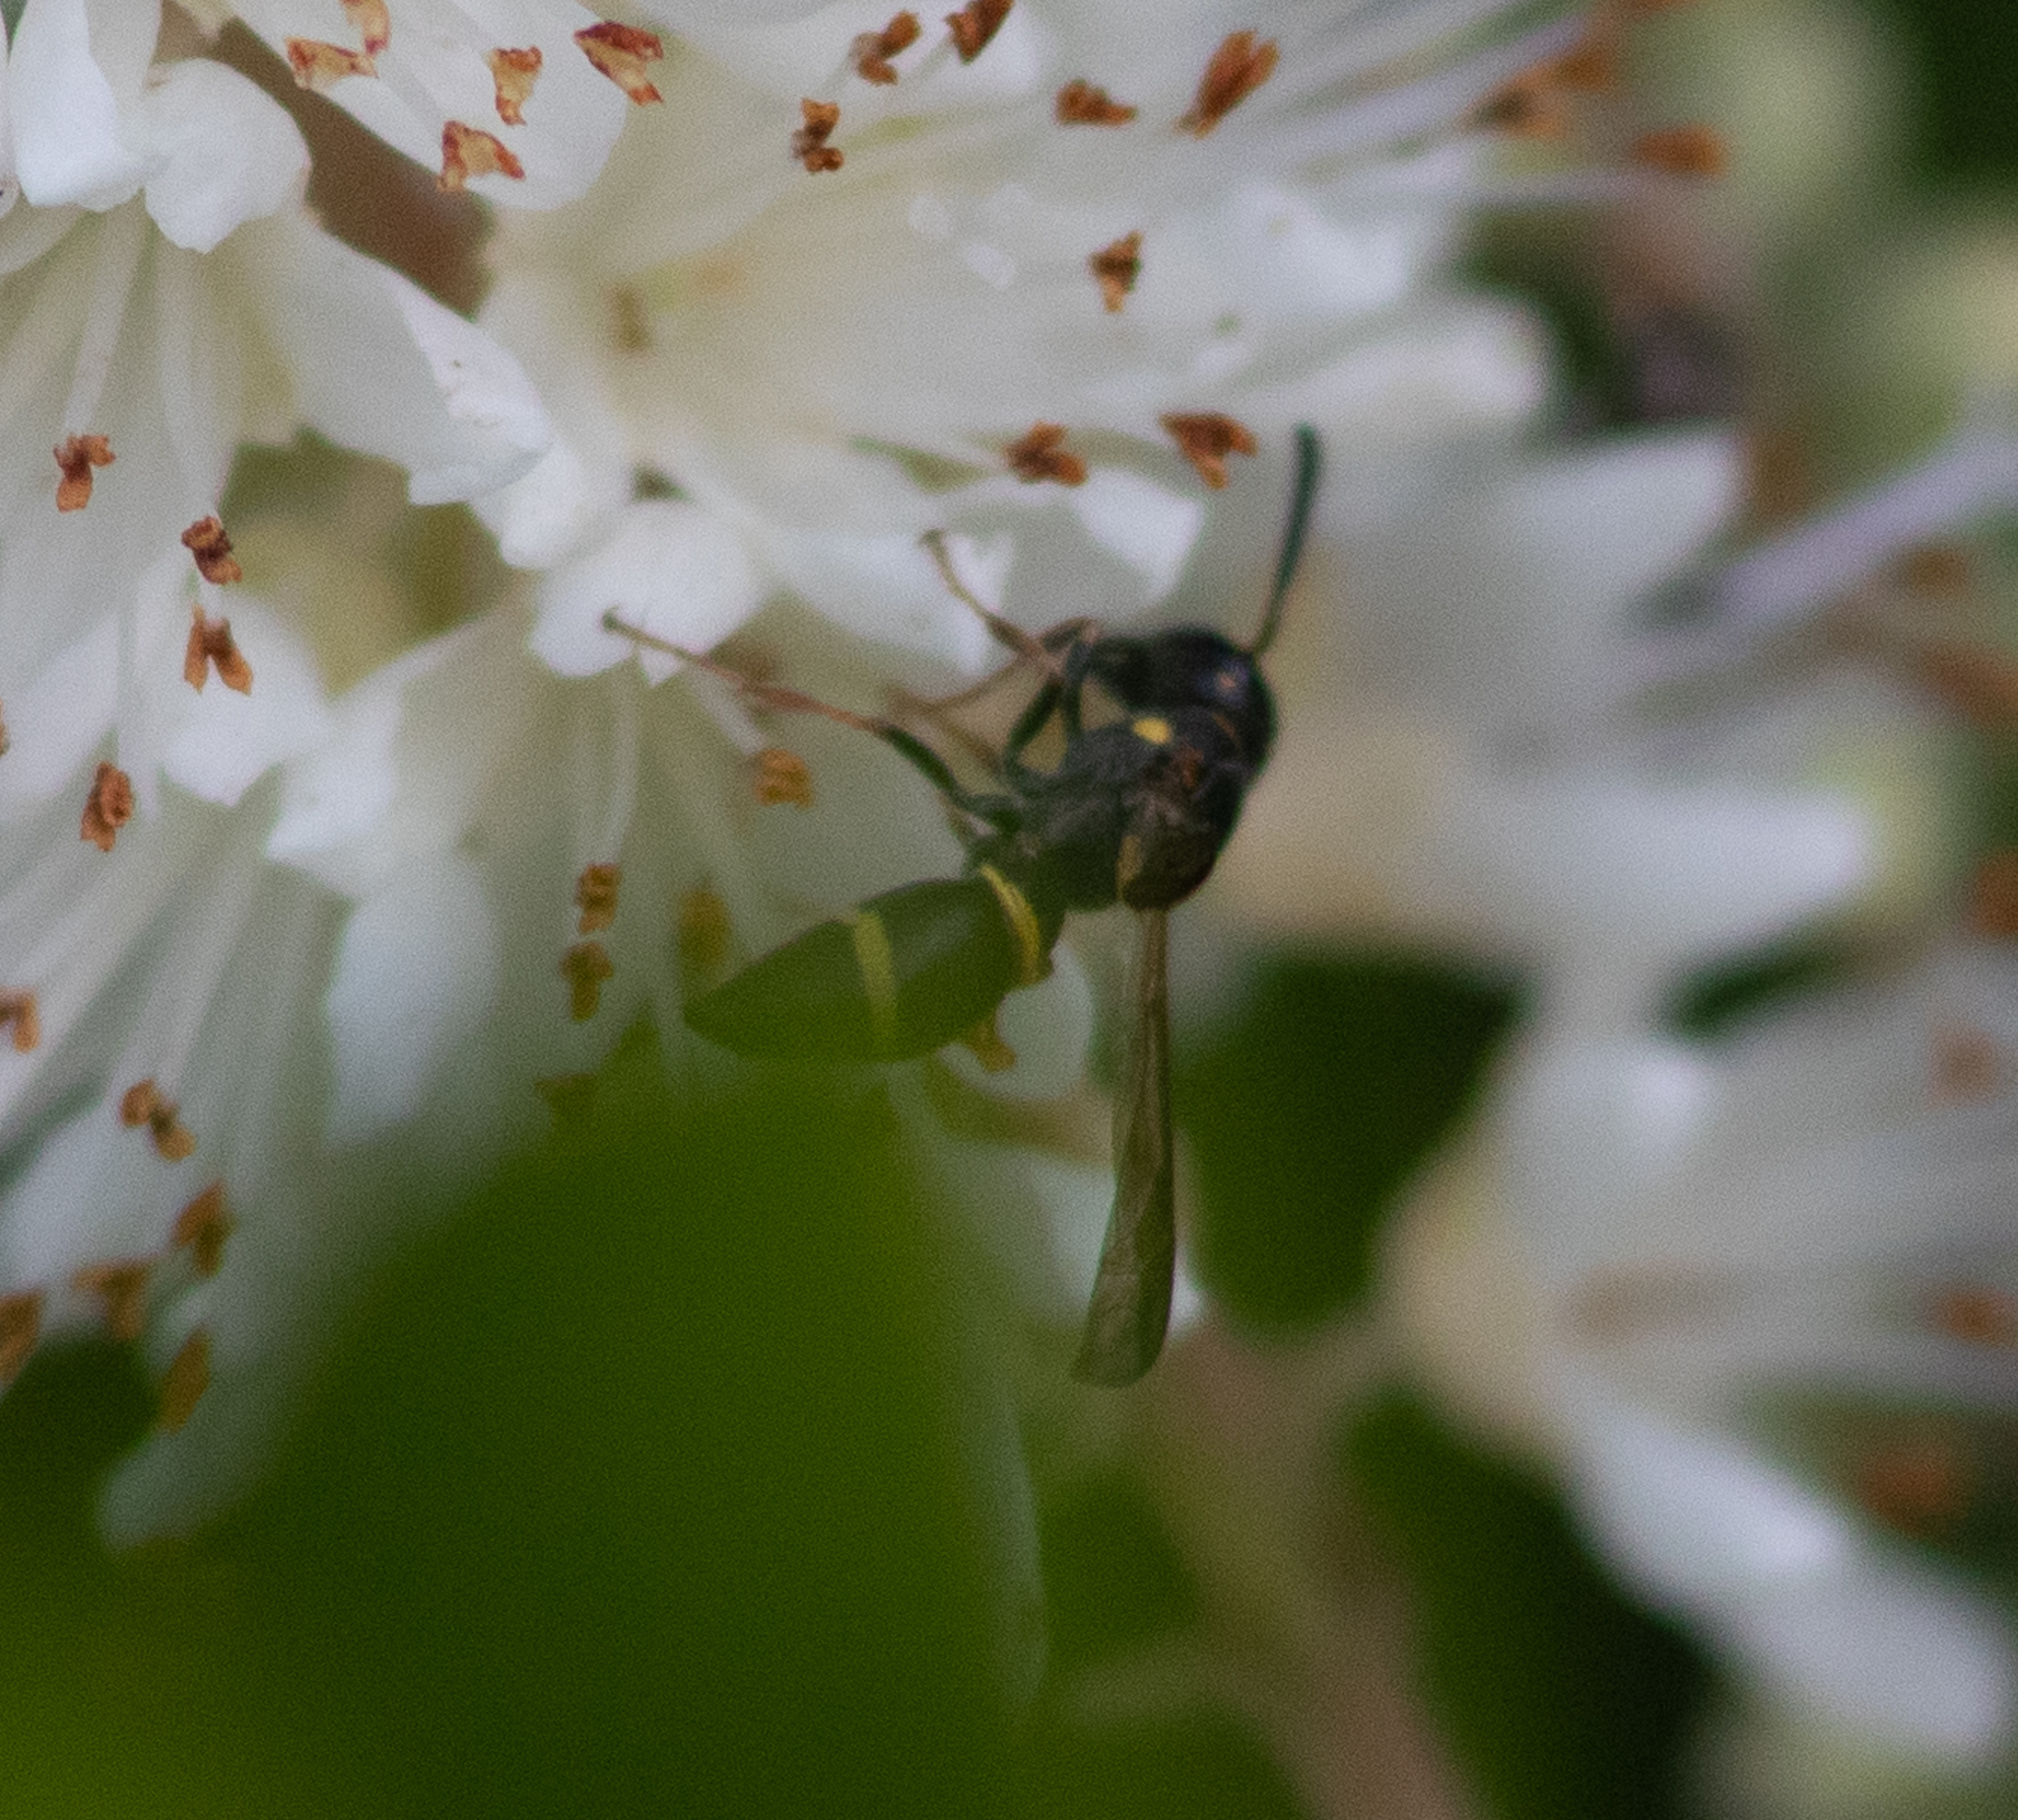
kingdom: Animalia
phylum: Arthropoda
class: Insecta
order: Hymenoptera
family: Eumenidae
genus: Parancistrocerus
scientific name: Parancistrocerus perennis
